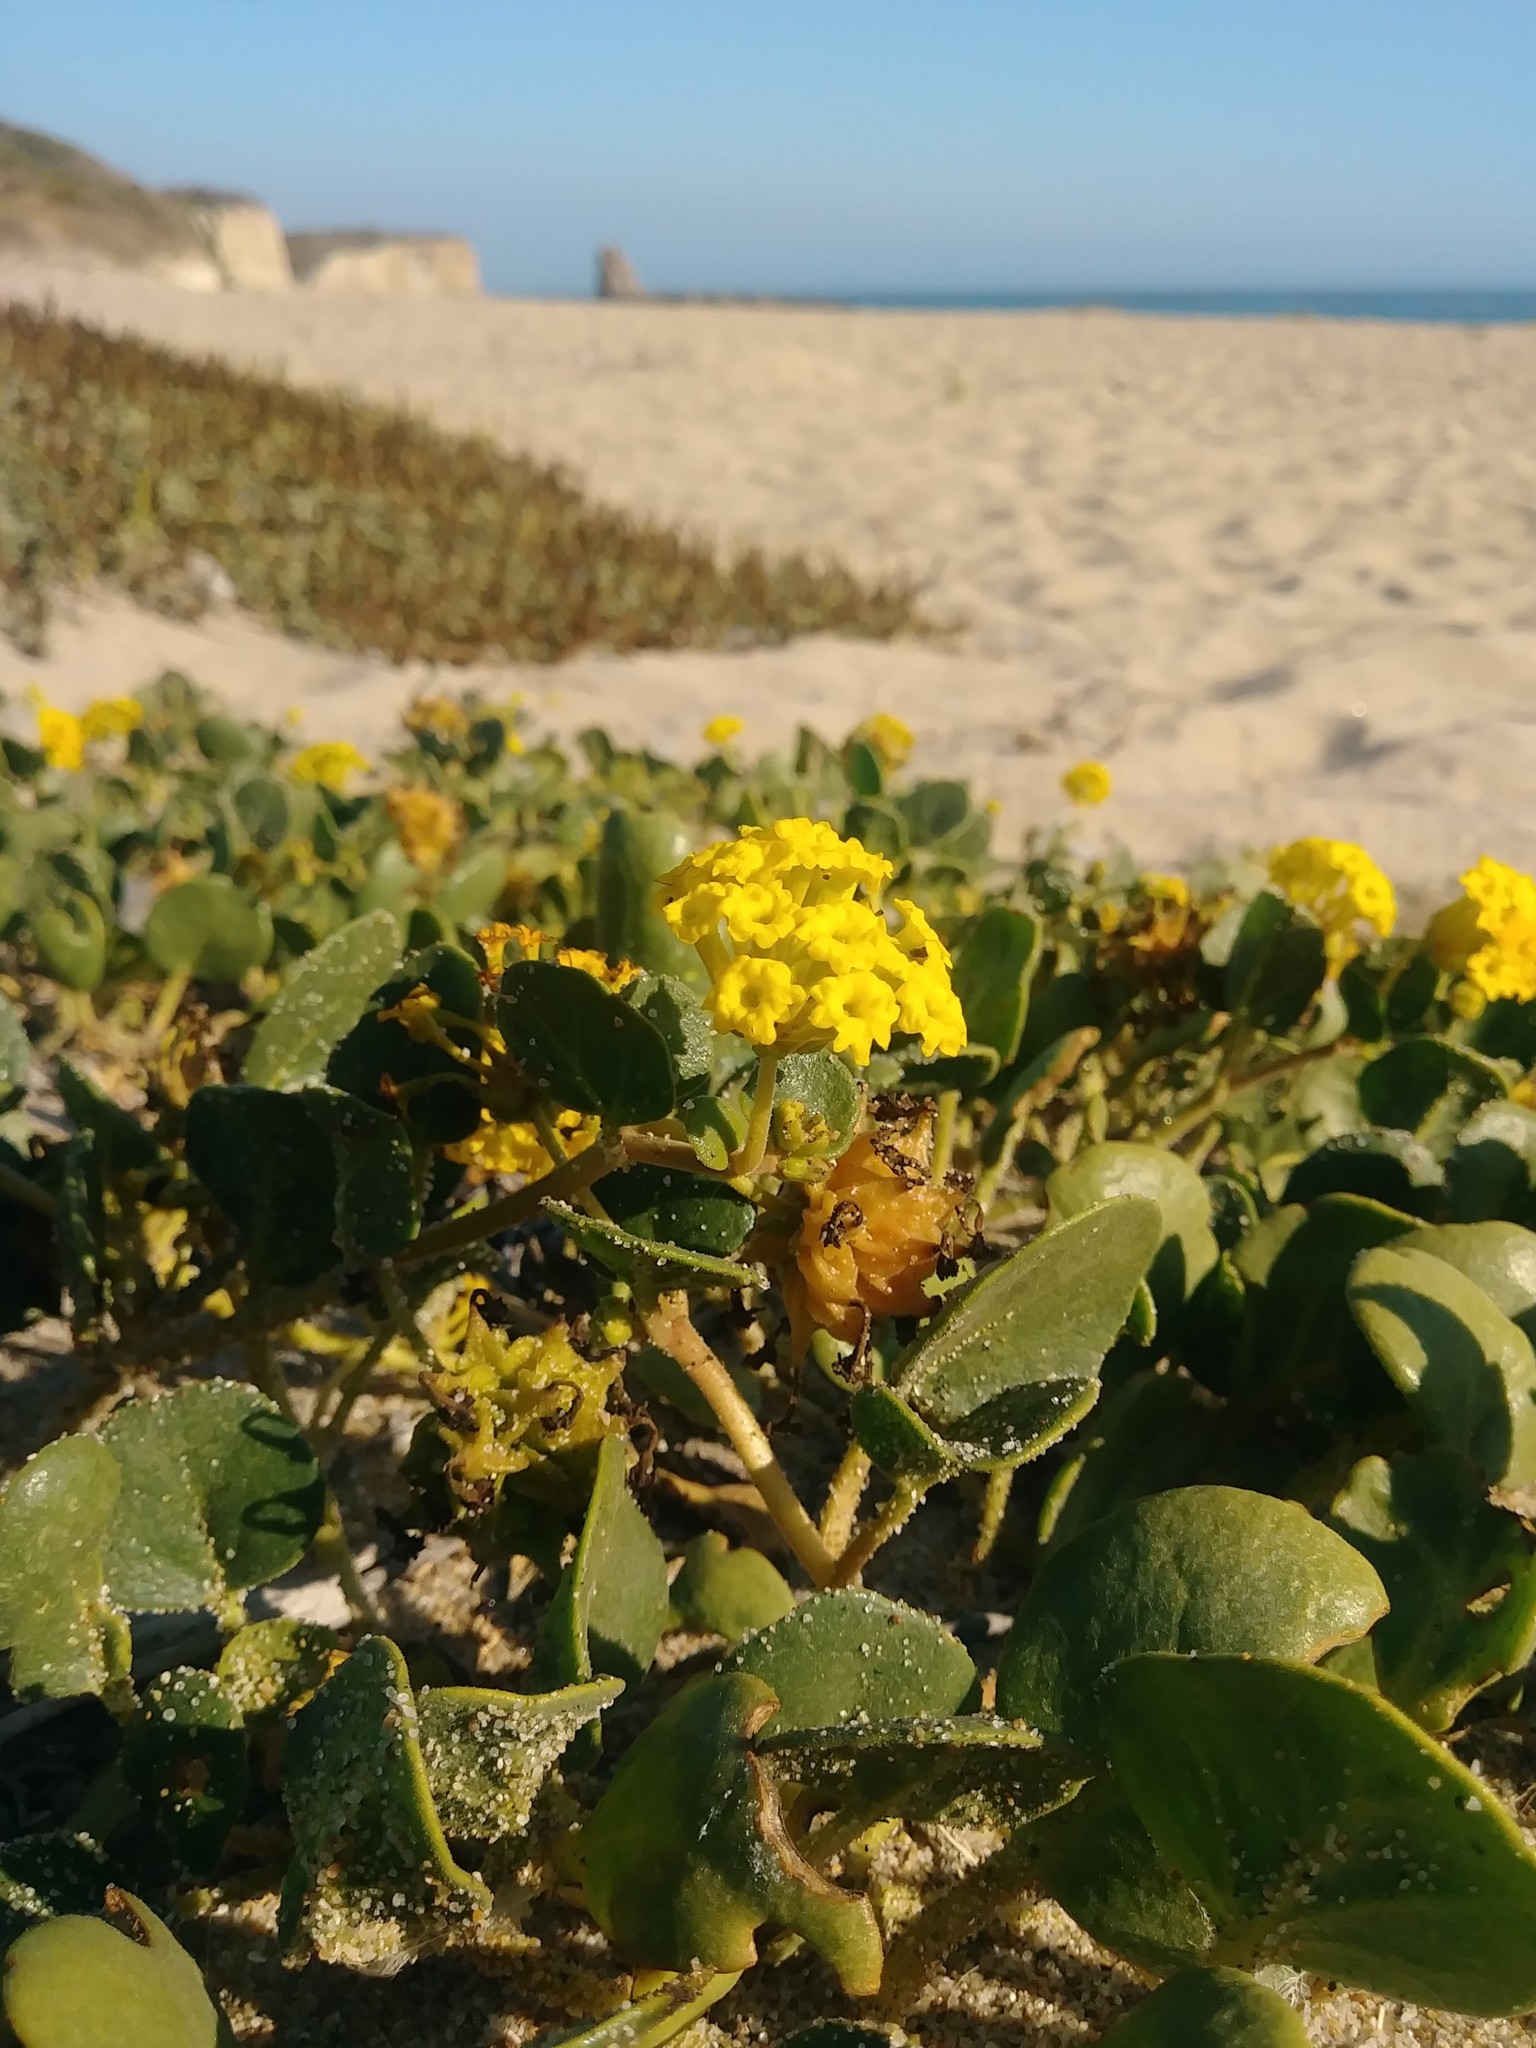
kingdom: Plantae
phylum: Tracheophyta
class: Magnoliopsida
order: Caryophyllales
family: Nyctaginaceae
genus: Abronia
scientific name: Abronia latifolia
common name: Yellow sand-verbena
